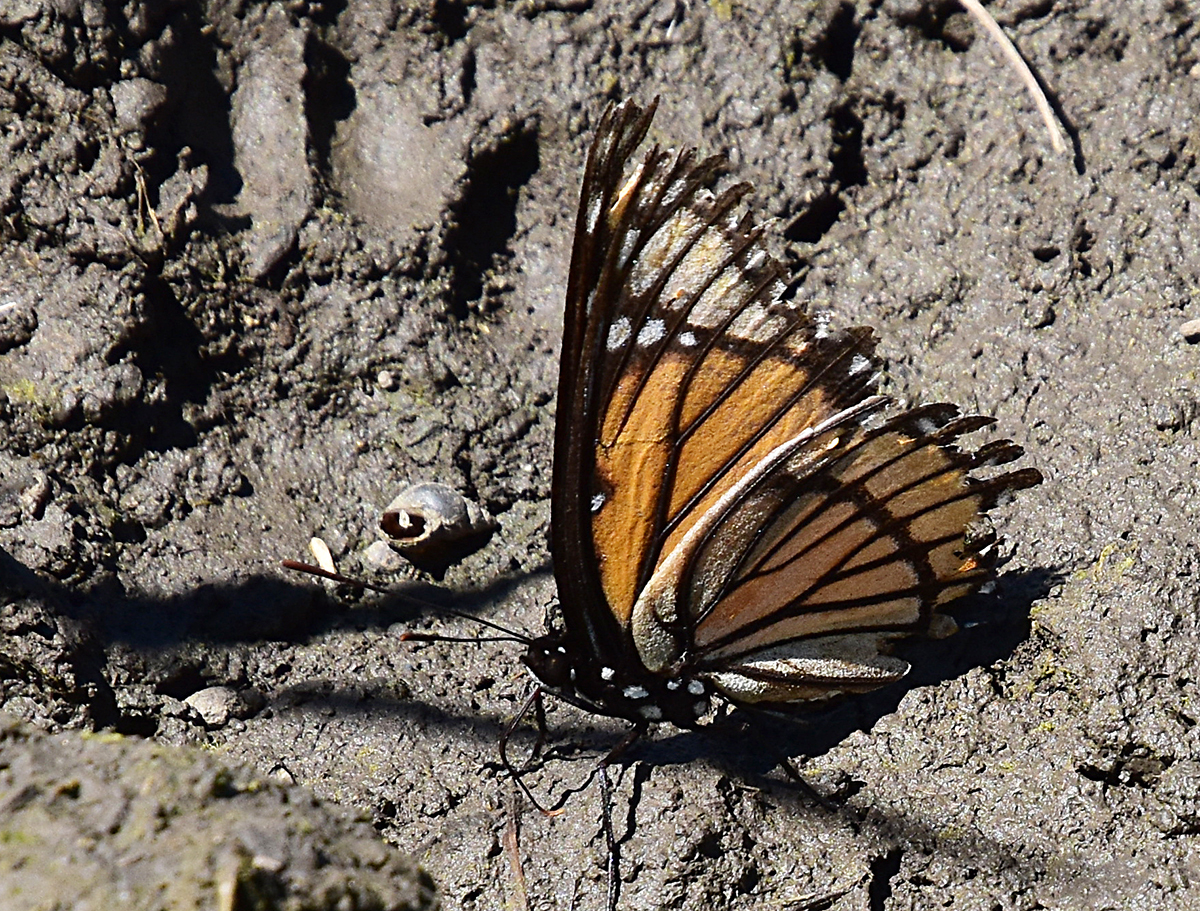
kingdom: Animalia
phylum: Arthropoda
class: Insecta
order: Lepidoptera
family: Nymphalidae
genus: Limenitis
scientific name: Limenitis archippus
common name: Viceroy
